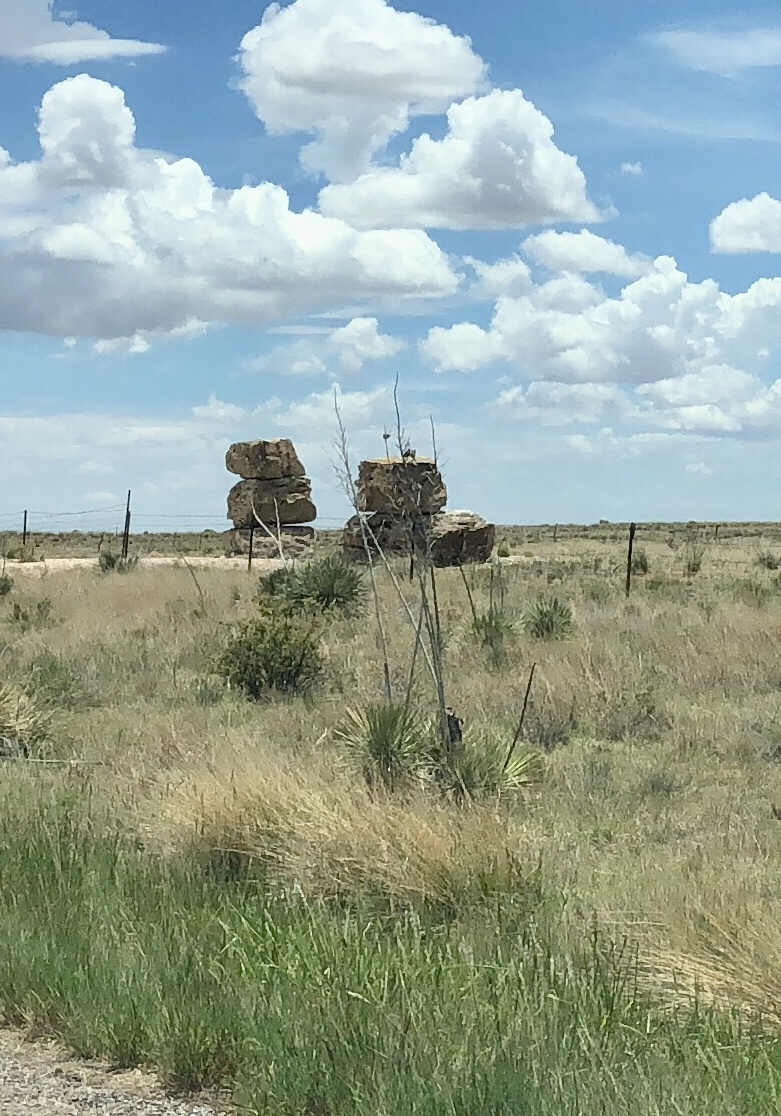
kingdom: Plantae
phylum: Tracheophyta
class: Liliopsida
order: Asparagales
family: Asparagaceae
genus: Yucca
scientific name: Yucca elata
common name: Palmella
